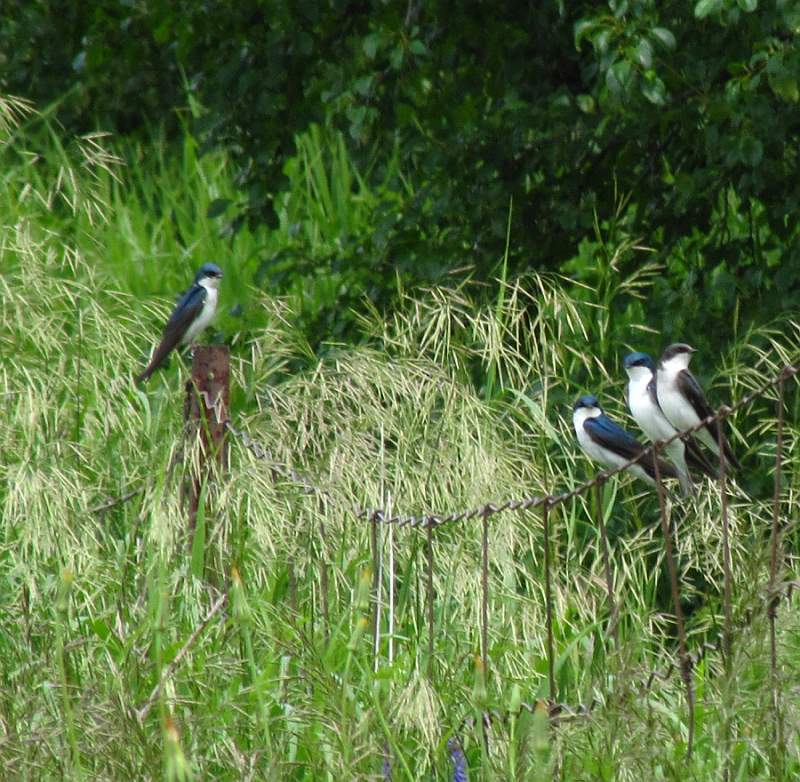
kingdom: Animalia
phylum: Chordata
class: Aves
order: Passeriformes
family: Hirundinidae
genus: Tachycineta
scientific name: Tachycineta bicolor
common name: Tree swallow
